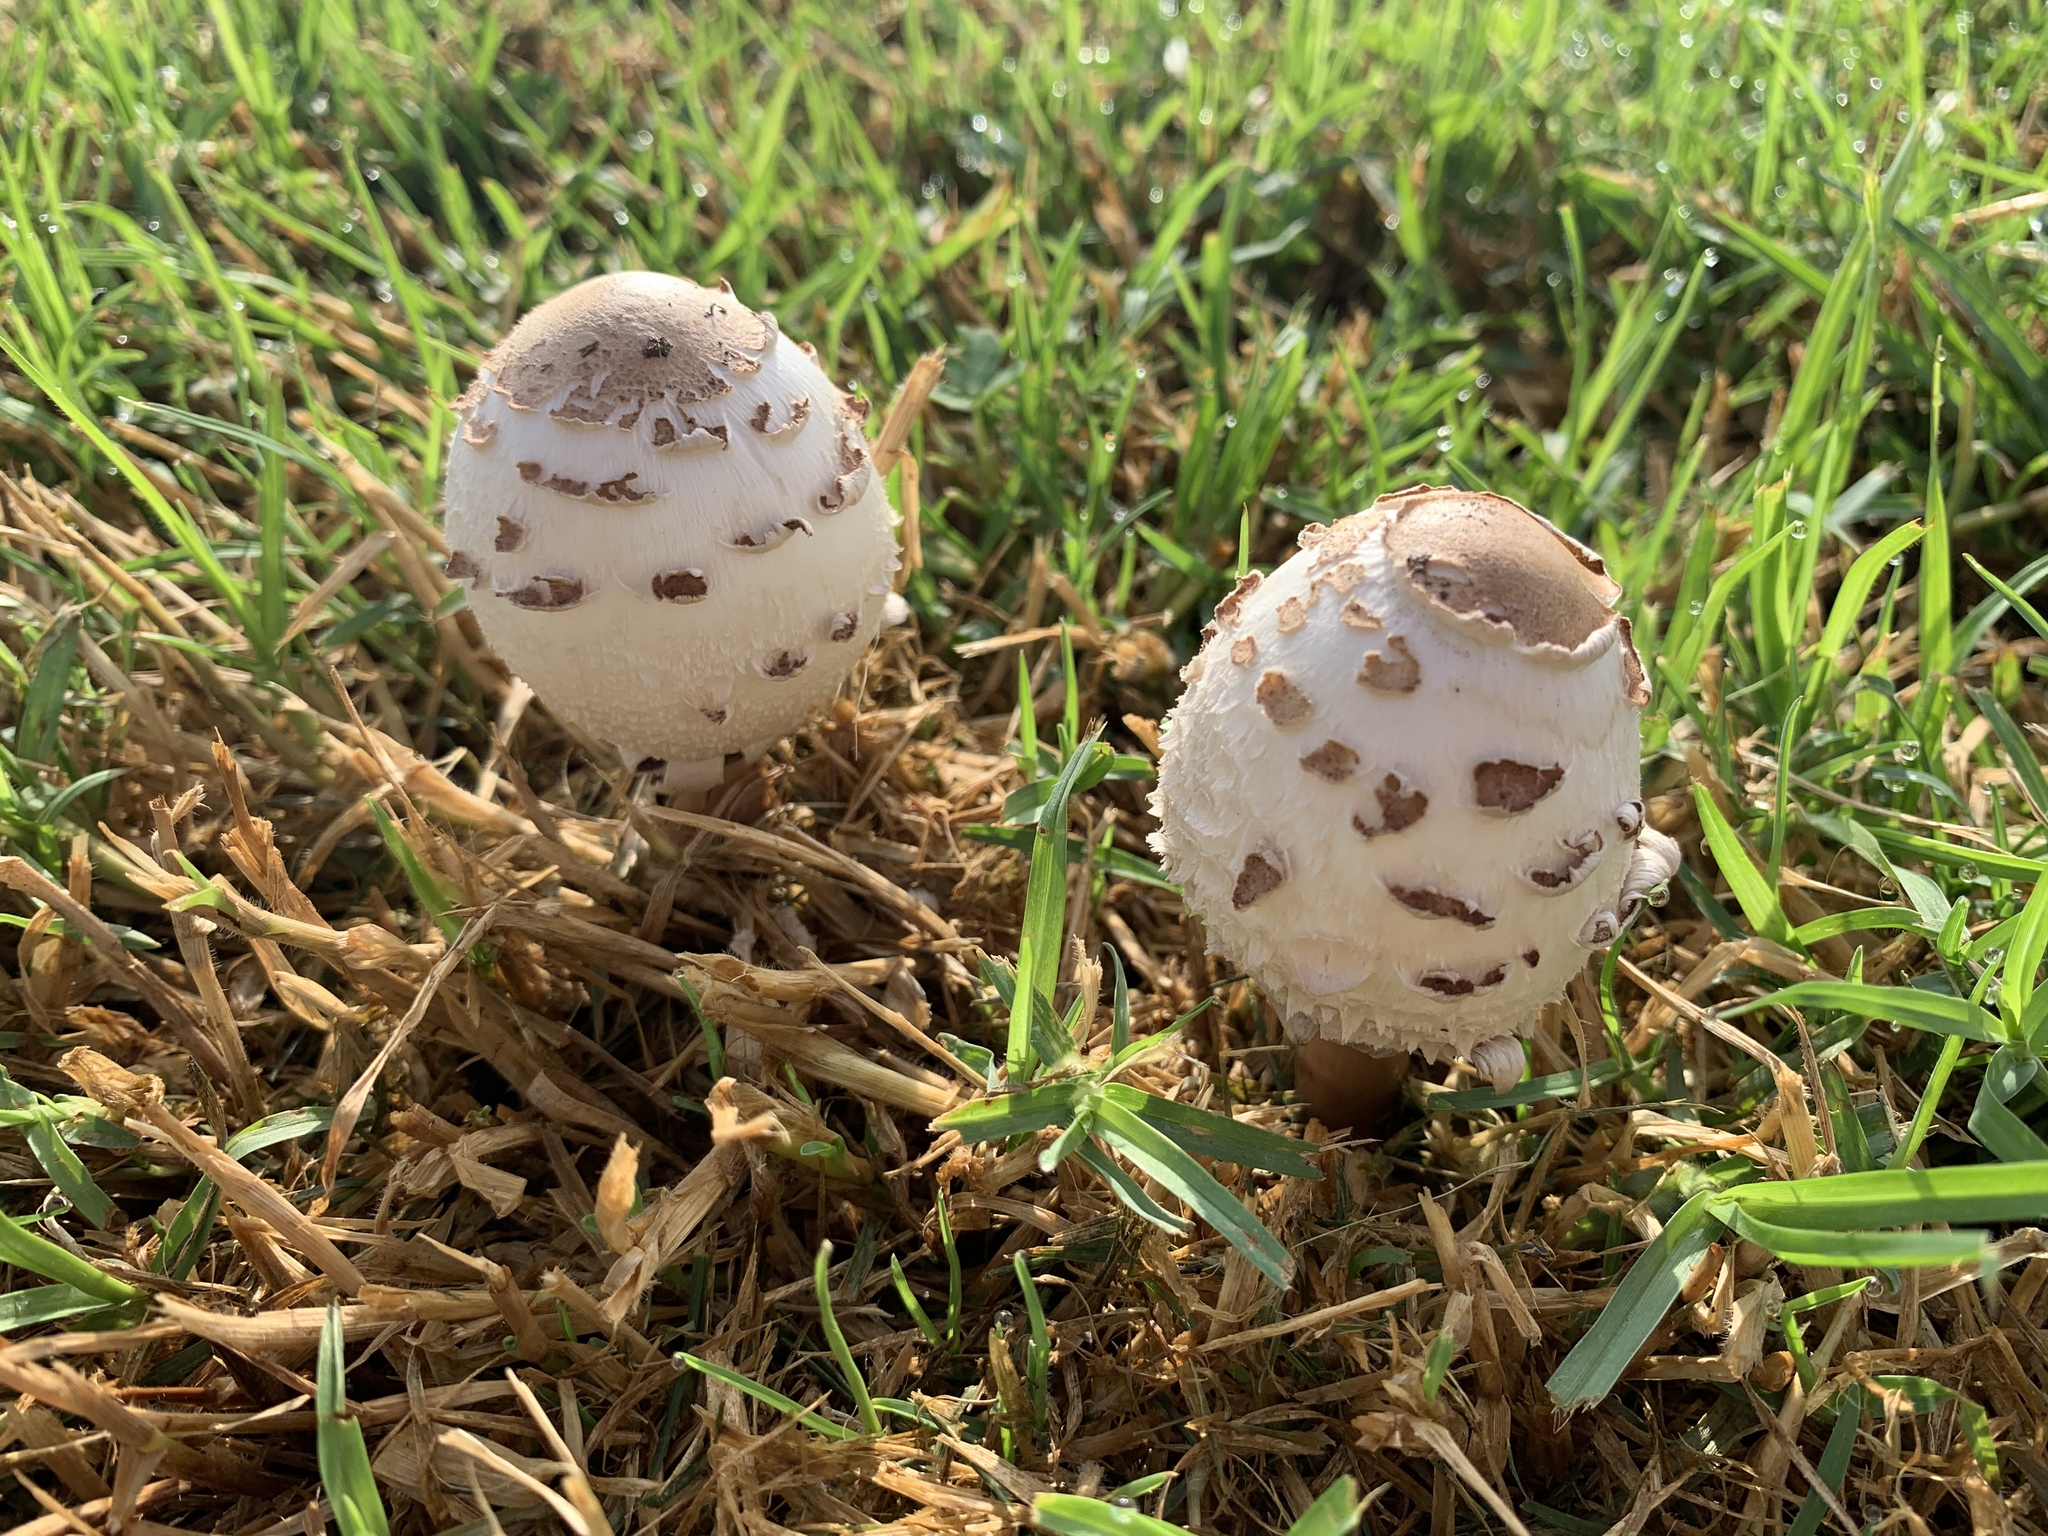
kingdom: Fungi
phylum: Basidiomycota
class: Agaricomycetes
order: Agaricales
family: Agaricaceae
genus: Chlorophyllum
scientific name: Chlorophyllum molybdites
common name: False parasol
